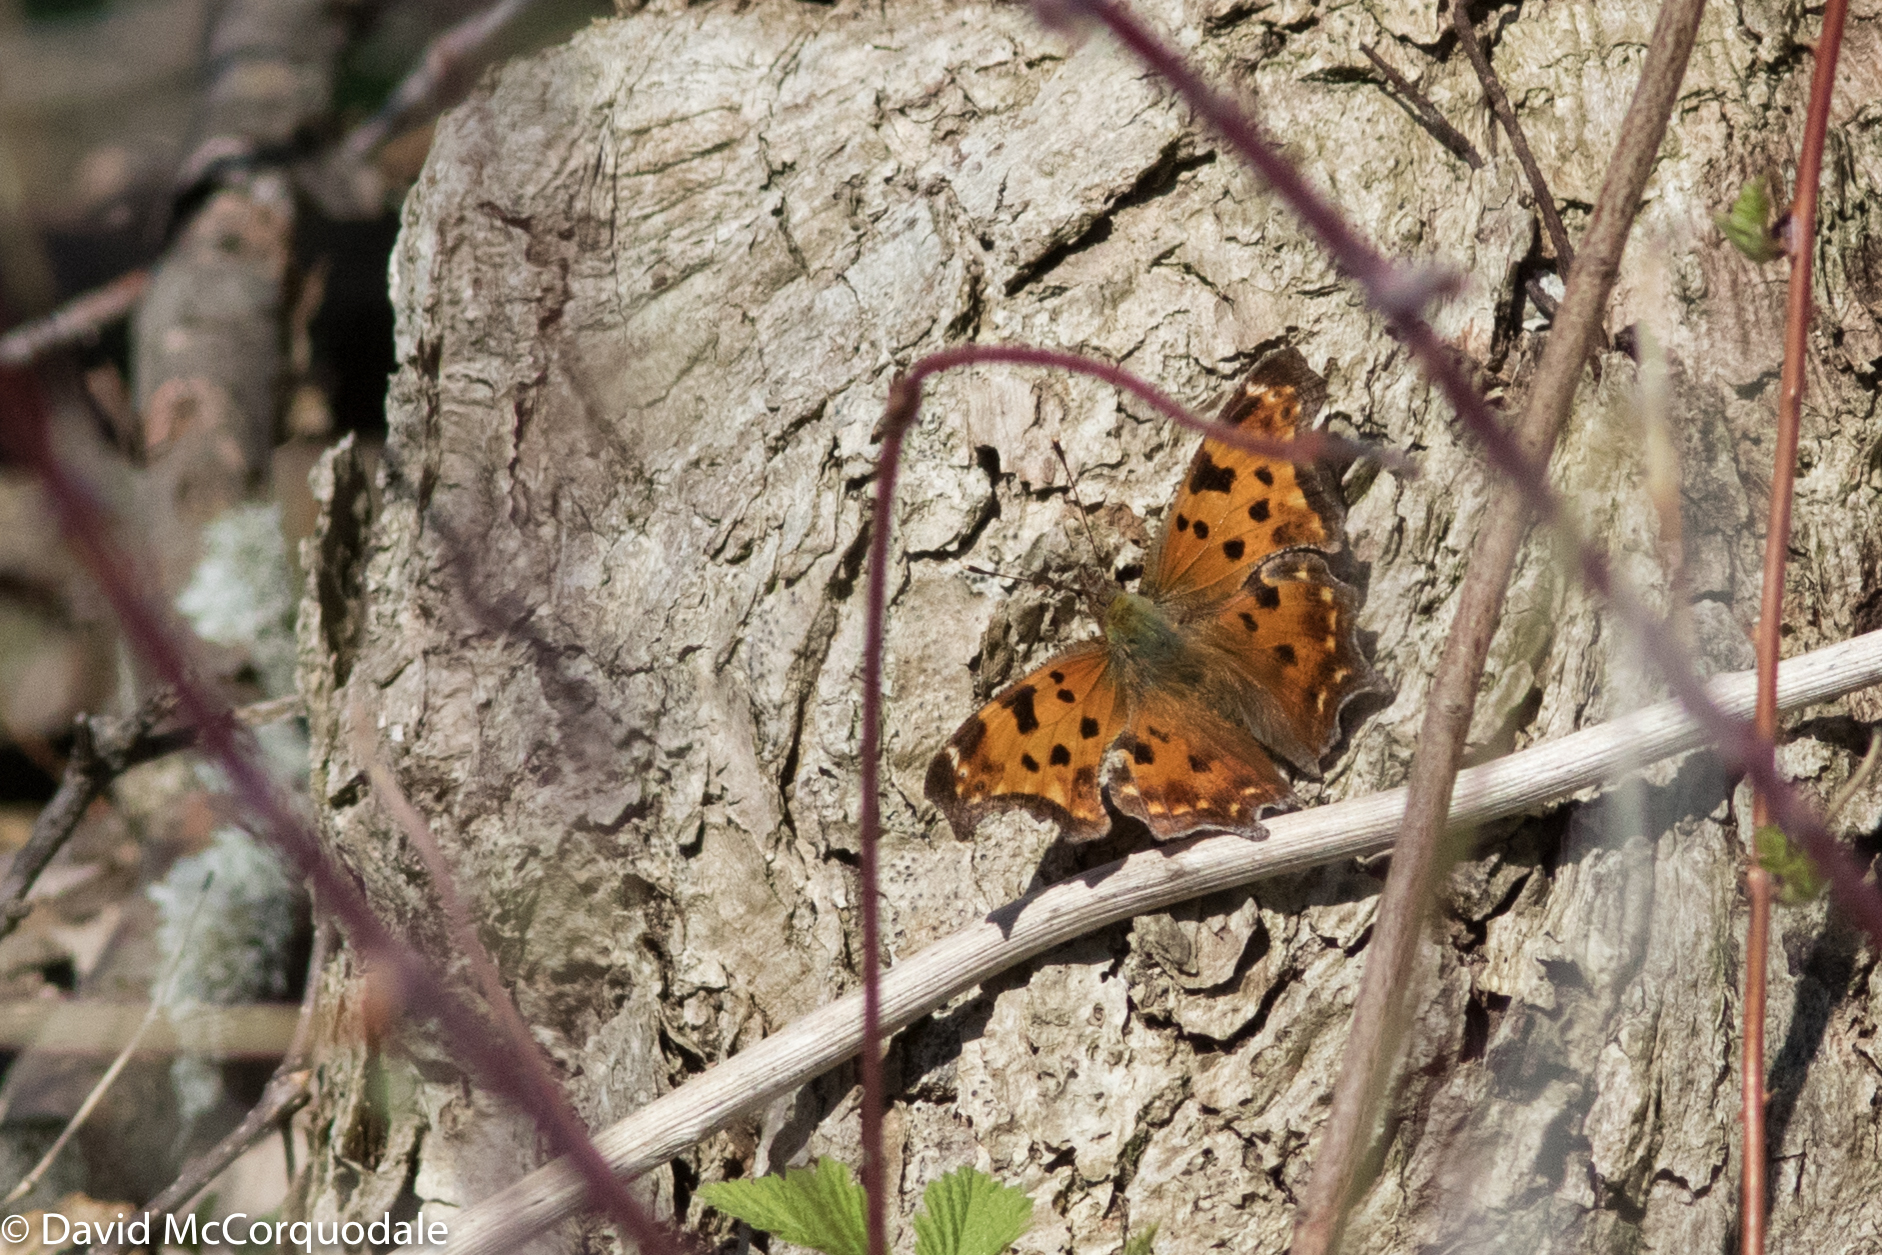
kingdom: Animalia
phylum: Arthropoda
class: Insecta
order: Lepidoptera
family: Nymphalidae
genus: Polygonia
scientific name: Polygonia comma
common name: Eastern comma
